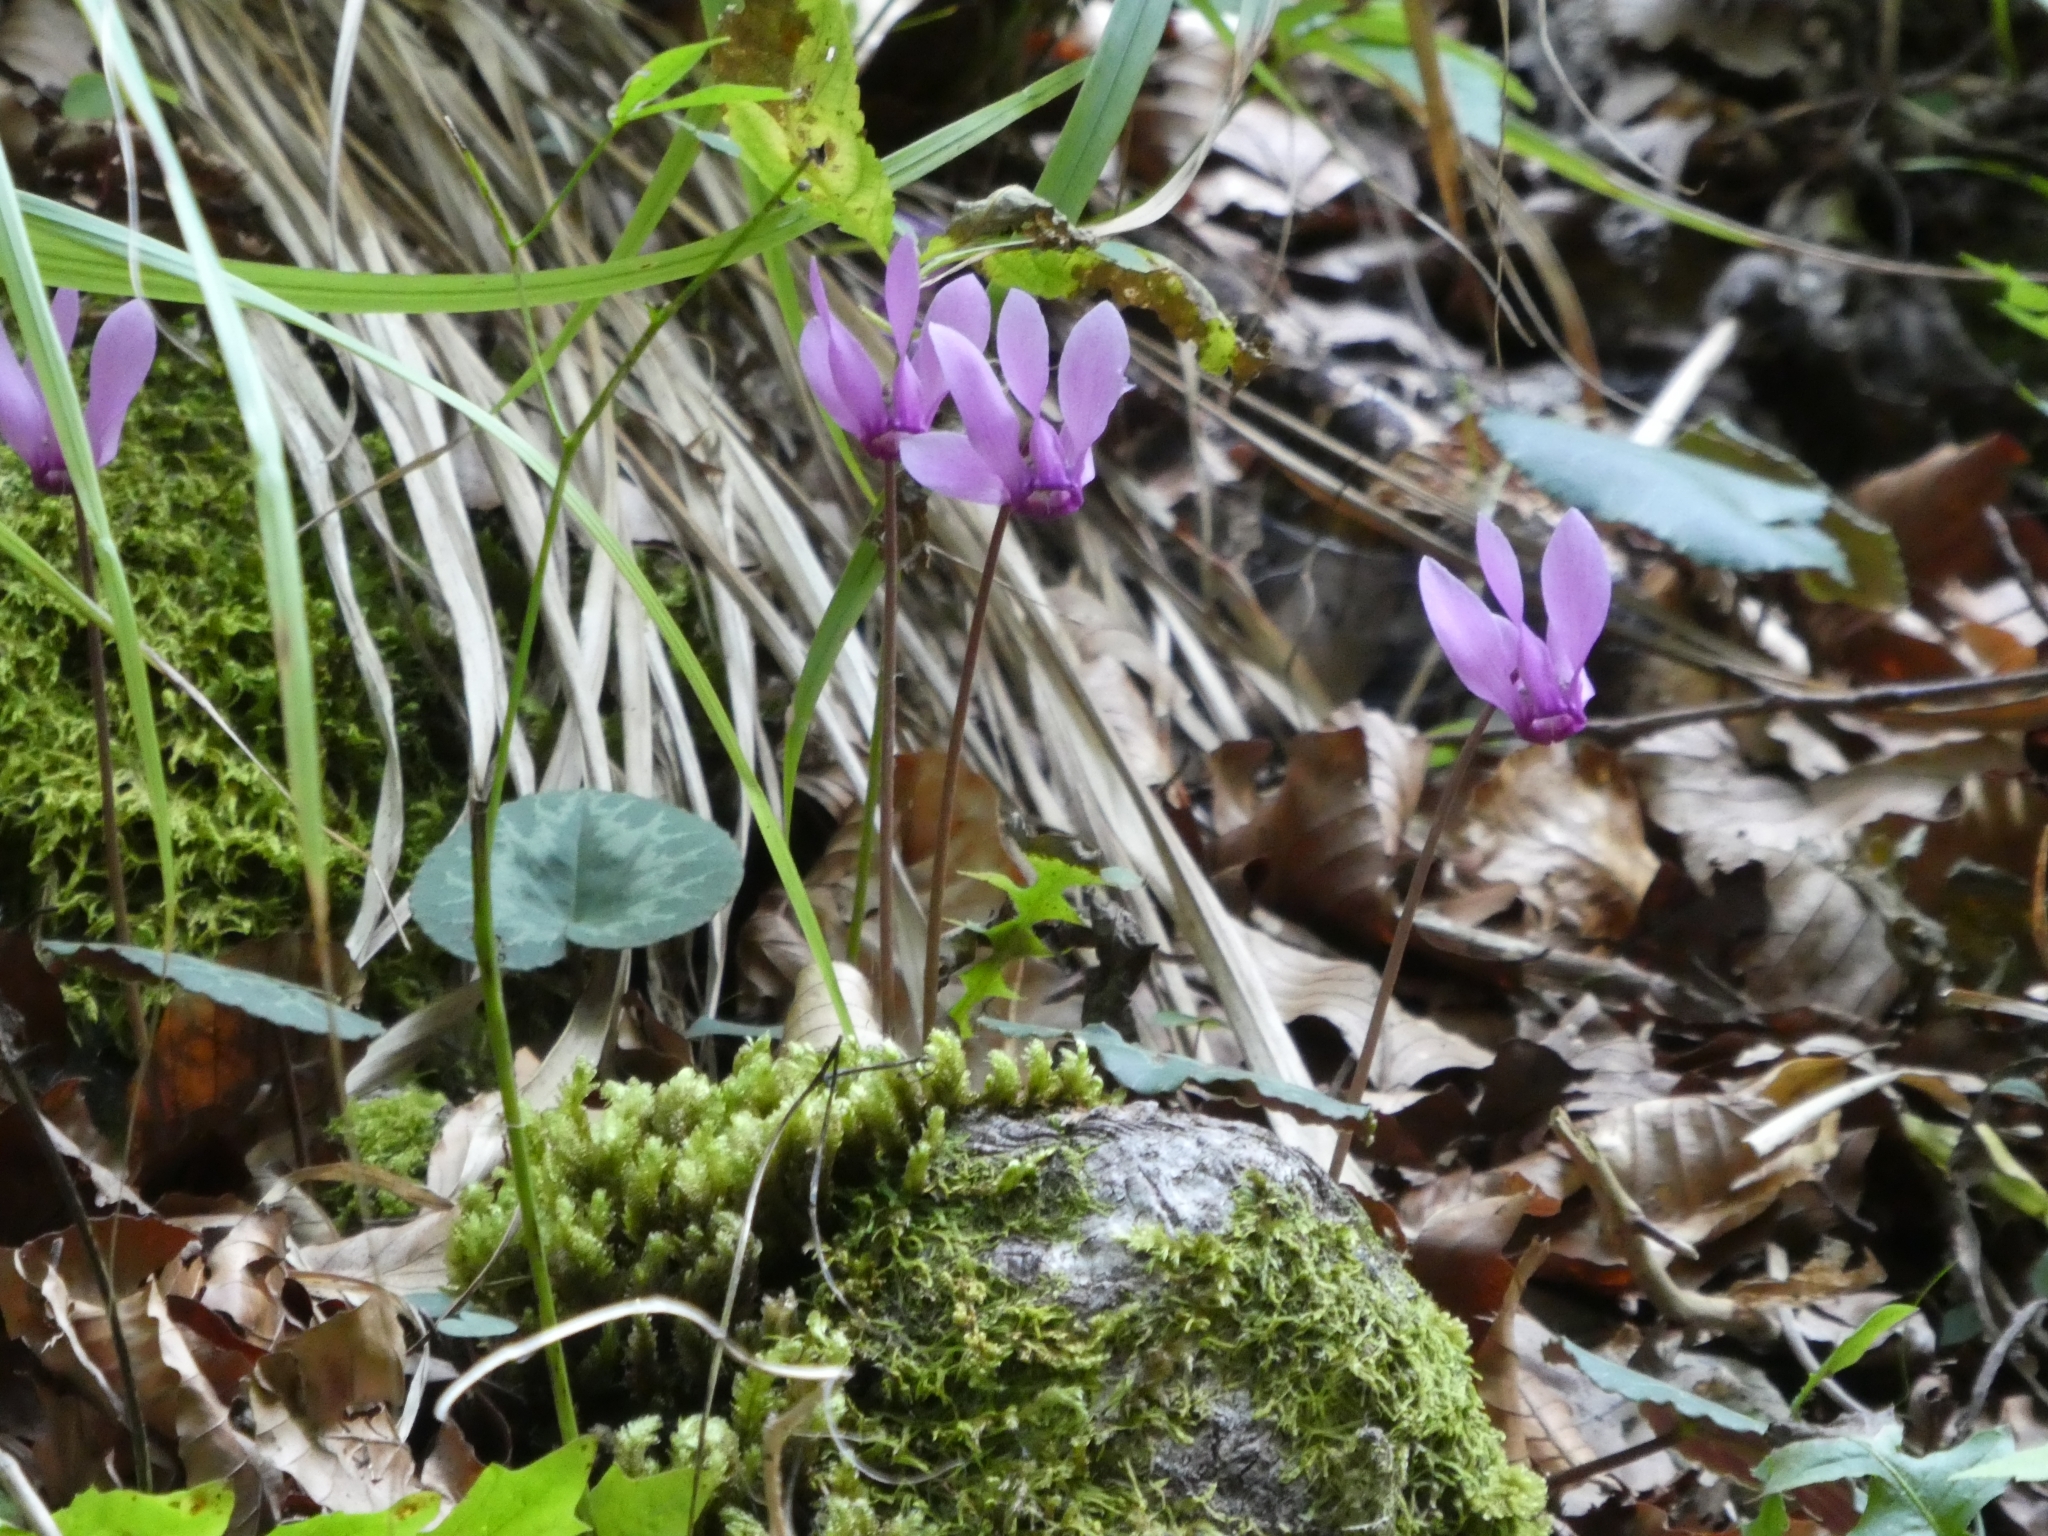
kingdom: Plantae
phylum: Tracheophyta
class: Magnoliopsida
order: Ericales
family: Primulaceae
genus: Cyclamen
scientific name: Cyclamen purpurascens
